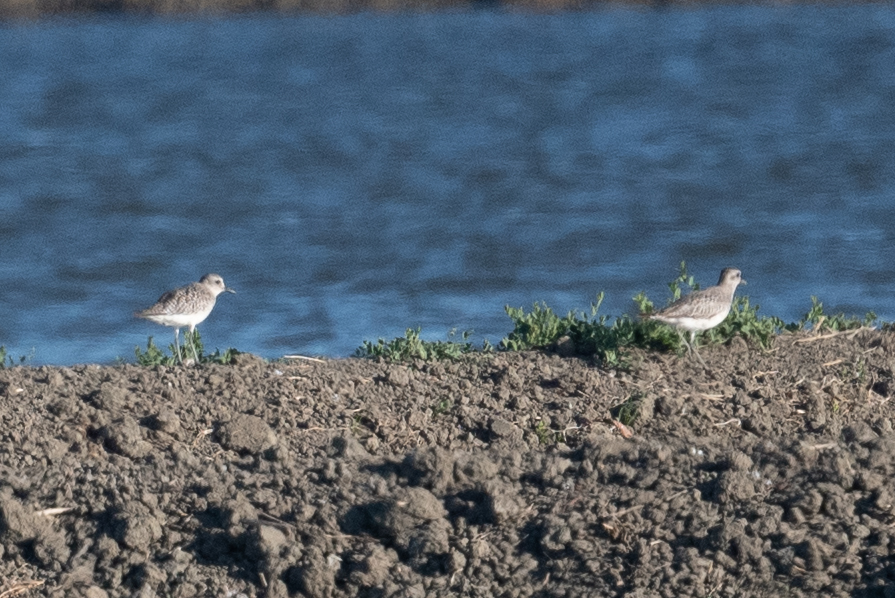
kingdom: Animalia
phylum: Chordata
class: Aves
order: Charadriiformes
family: Charadriidae
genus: Pluvialis
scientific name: Pluvialis squatarola
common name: Grey plover
